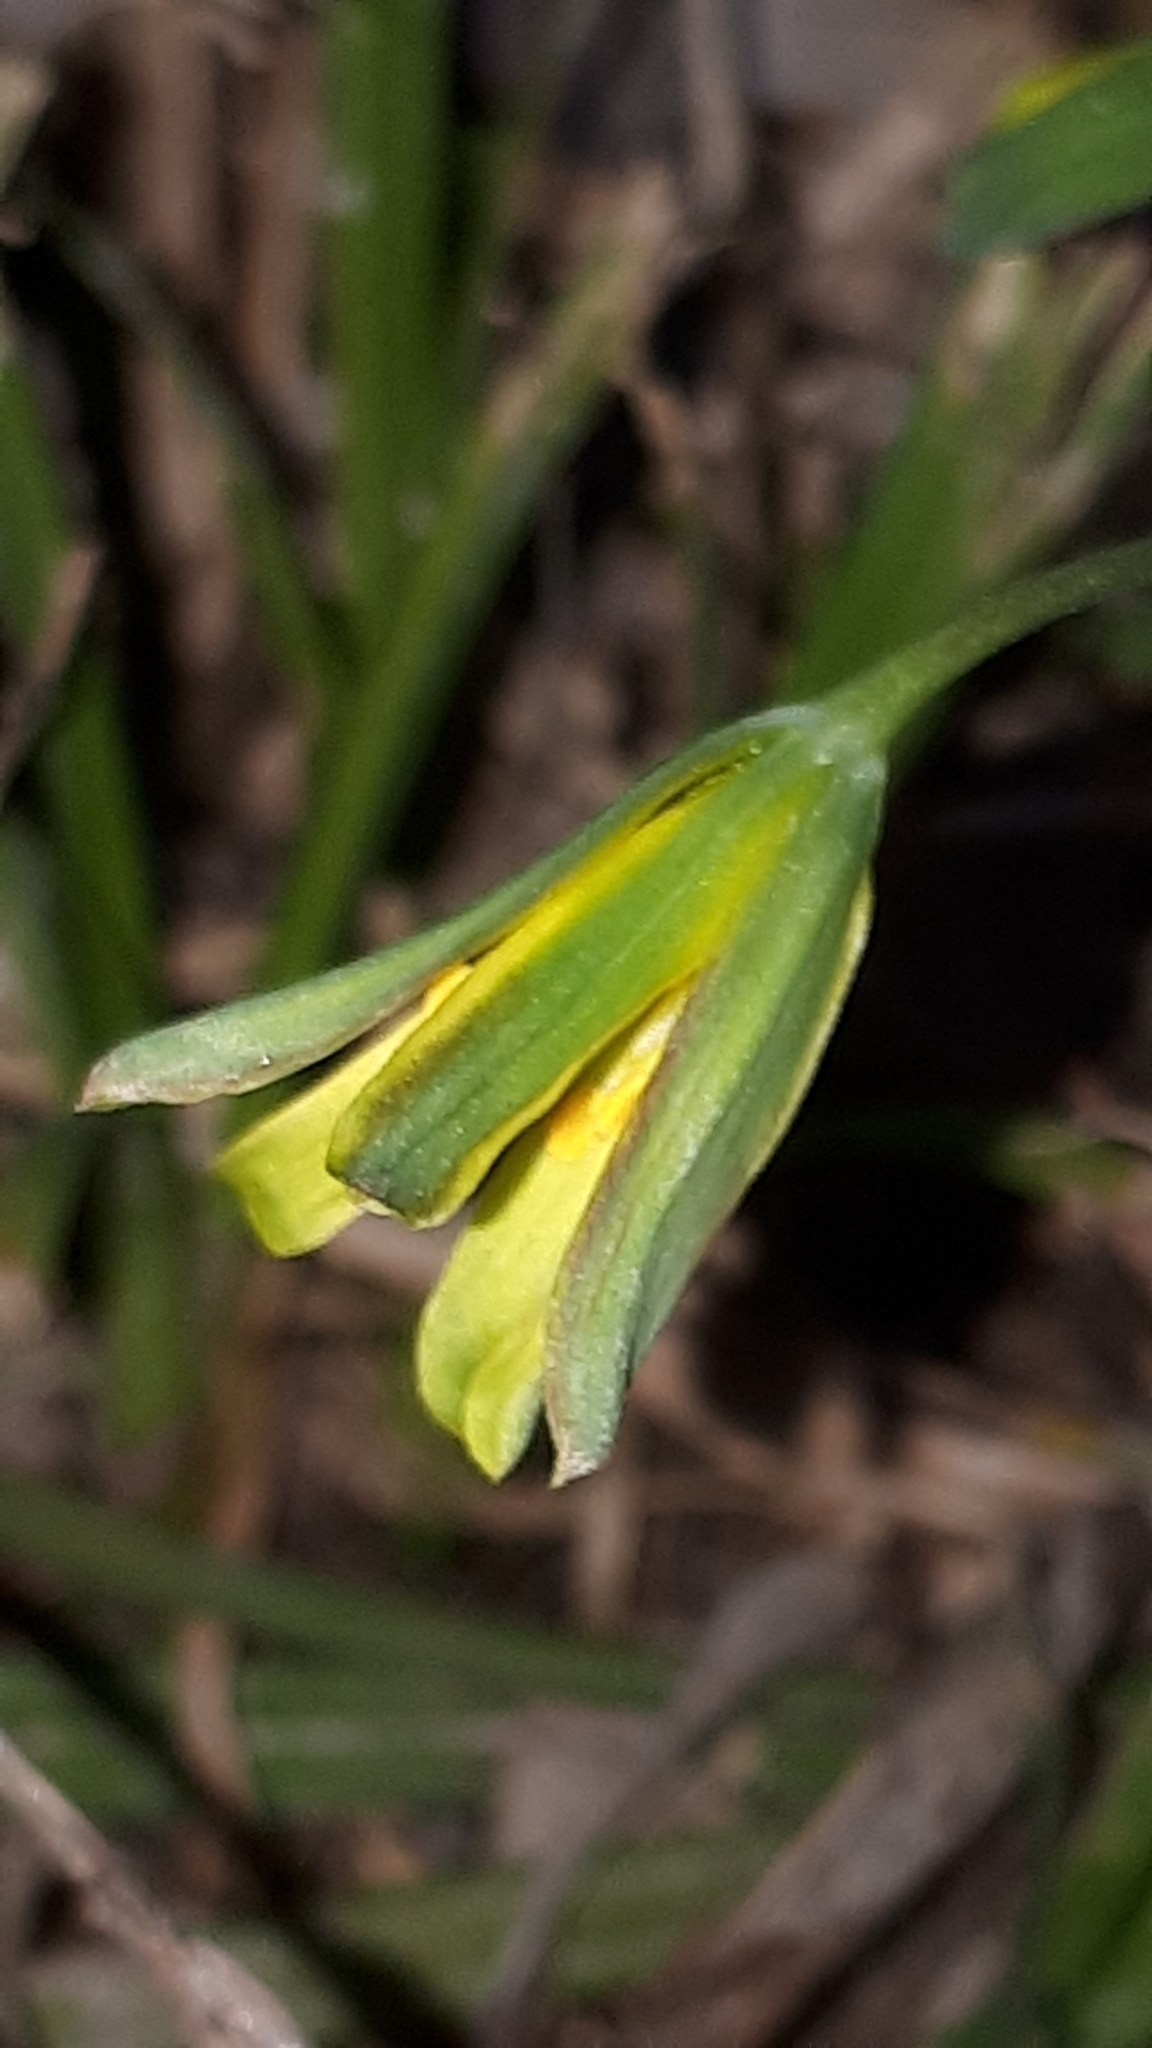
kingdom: Plantae
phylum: Tracheophyta
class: Liliopsida
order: Liliales
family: Liliaceae
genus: Gagea
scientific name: Gagea lutea
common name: Yellow star-of-bethlehem
